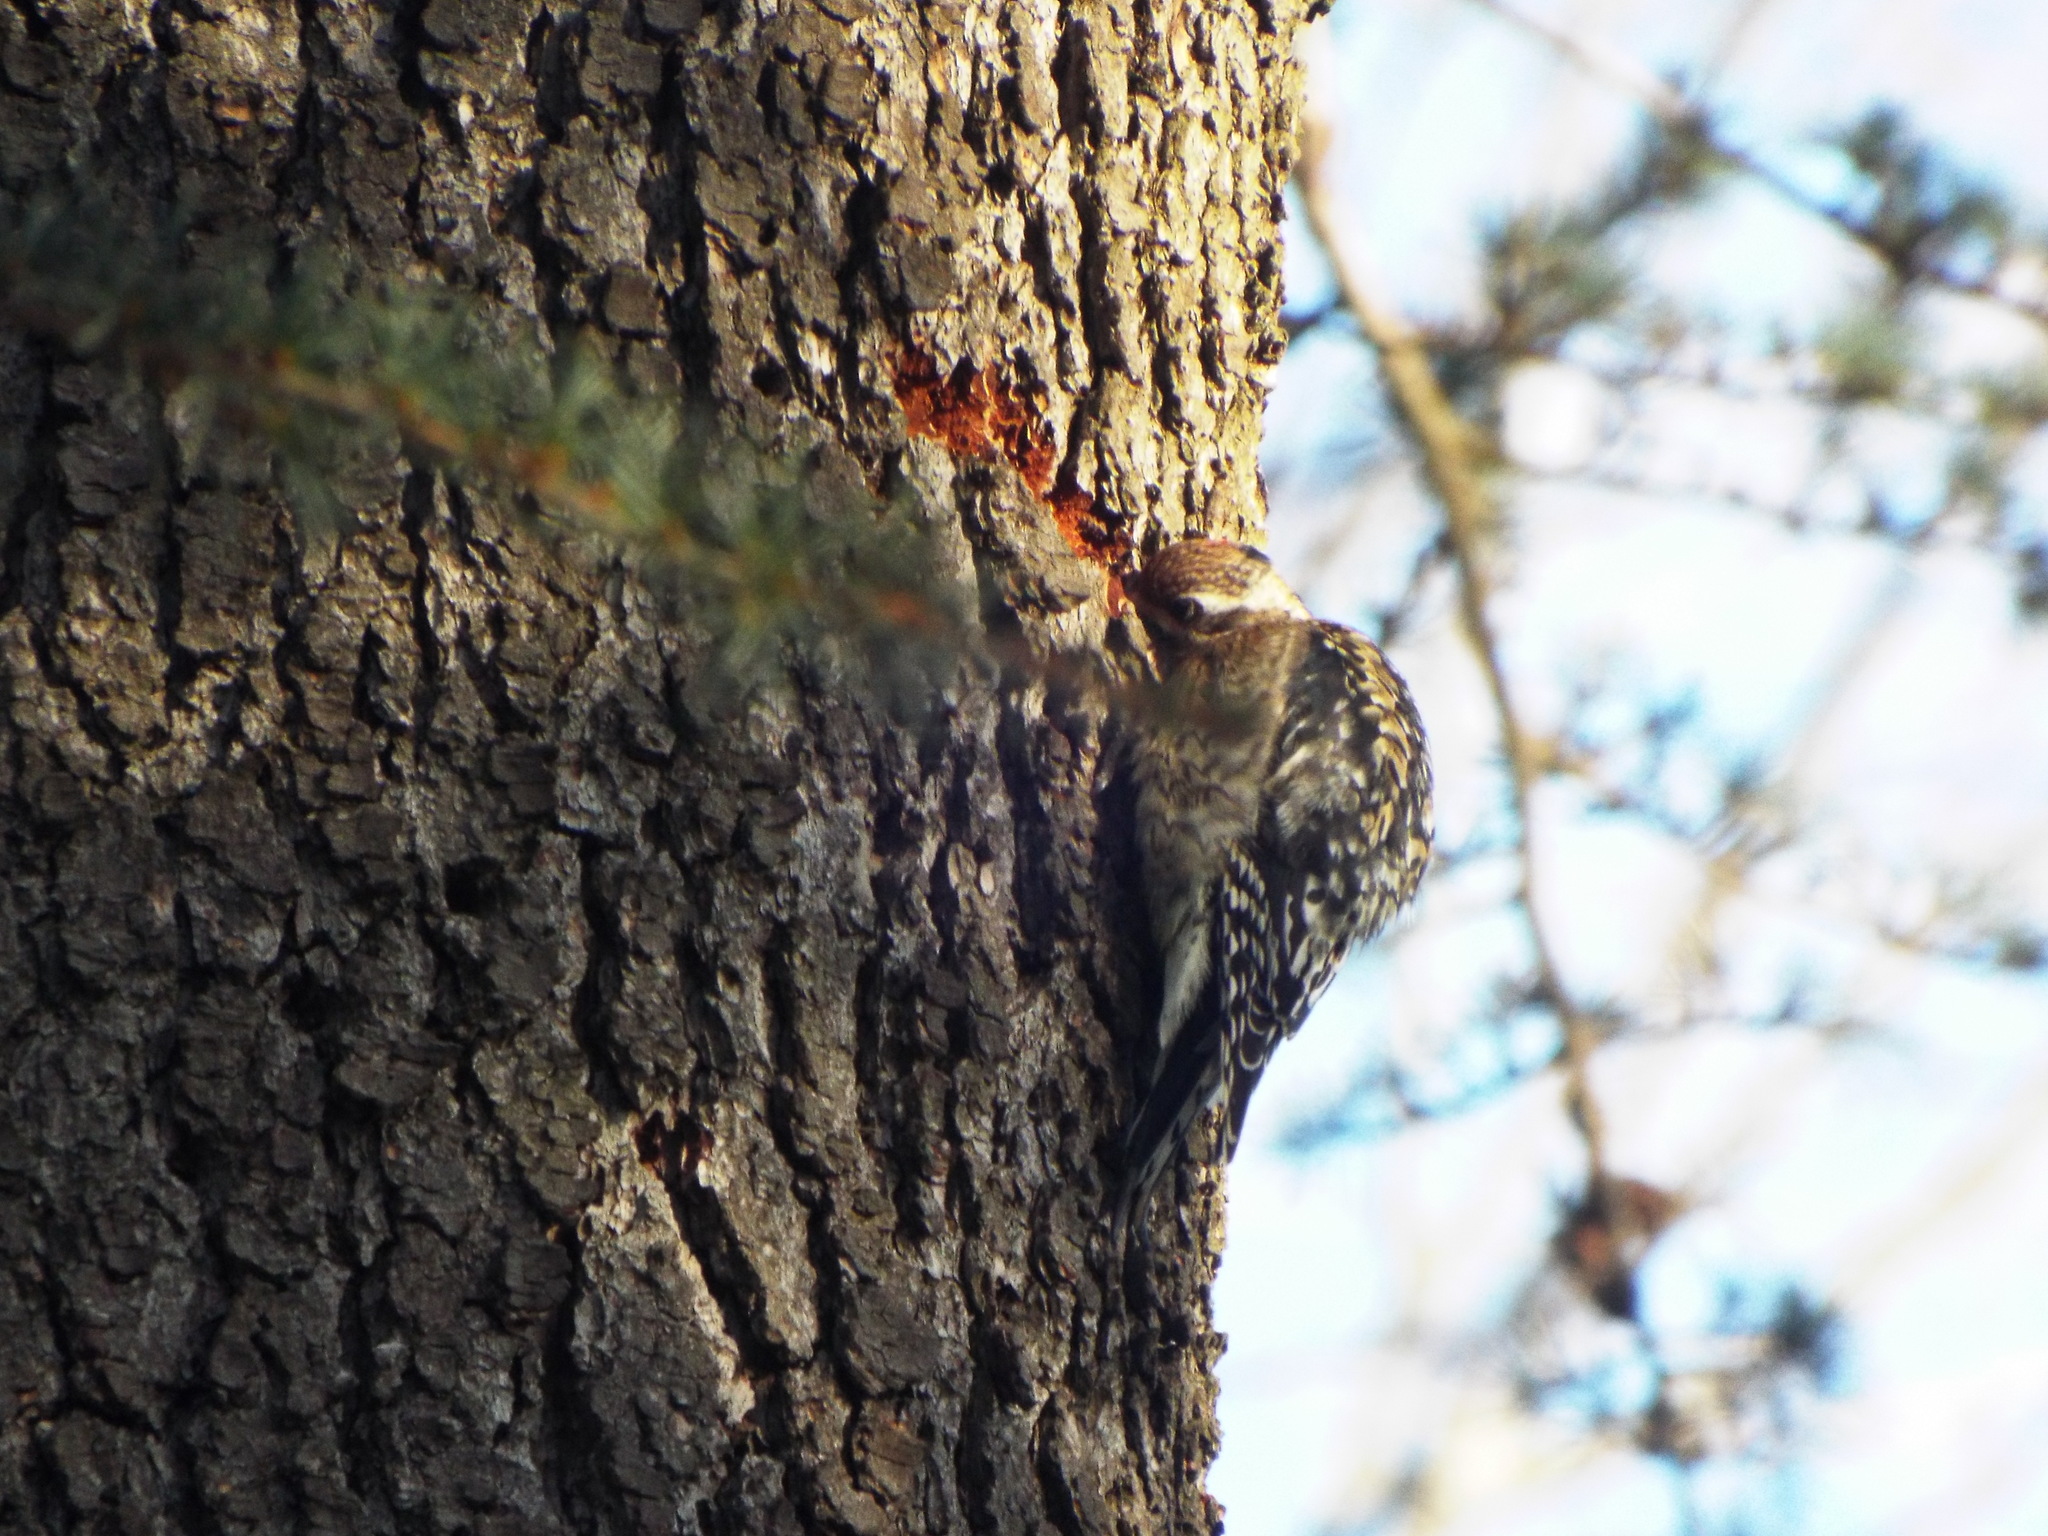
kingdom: Animalia
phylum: Chordata
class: Aves
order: Piciformes
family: Picidae
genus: Sphyrapicus
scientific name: Sphyrapicus varius
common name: Yellow-bellied sapsucker
